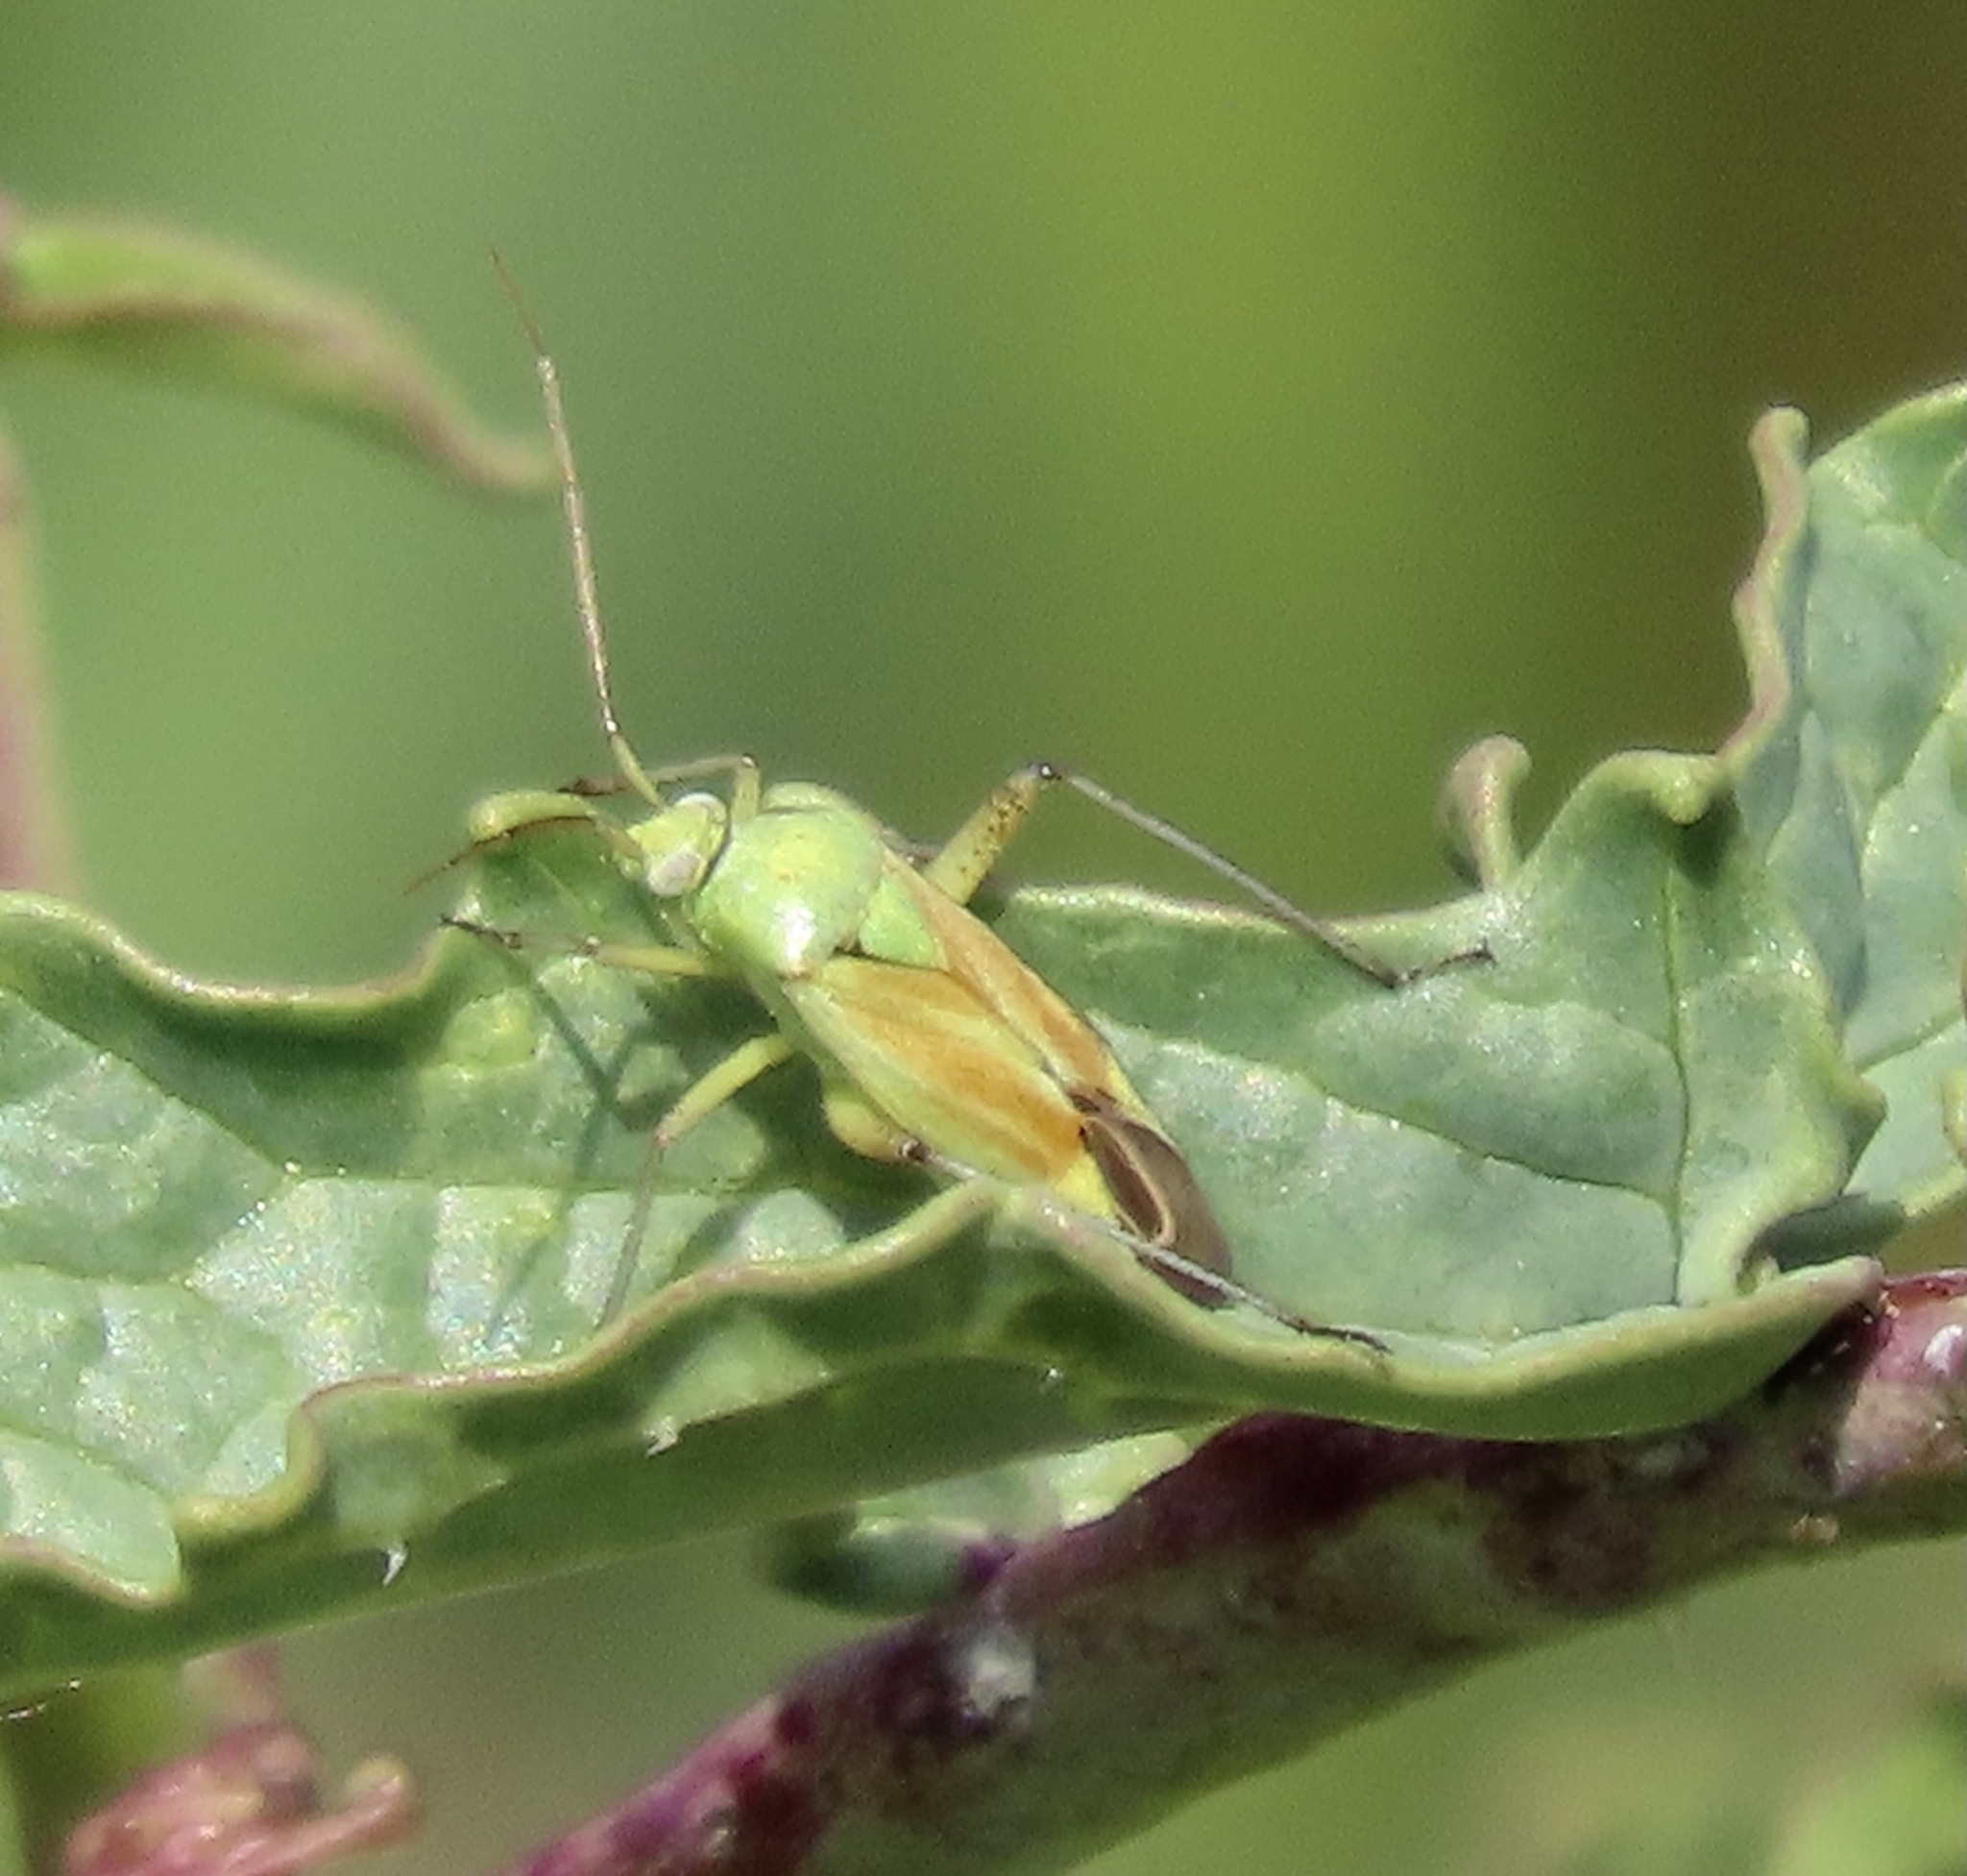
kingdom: Animalia
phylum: Arthropoda
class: Insecta
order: Hemiptera
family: Miridae
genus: Closterotomus
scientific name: Closterotomus norvegicus
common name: Plant bug
